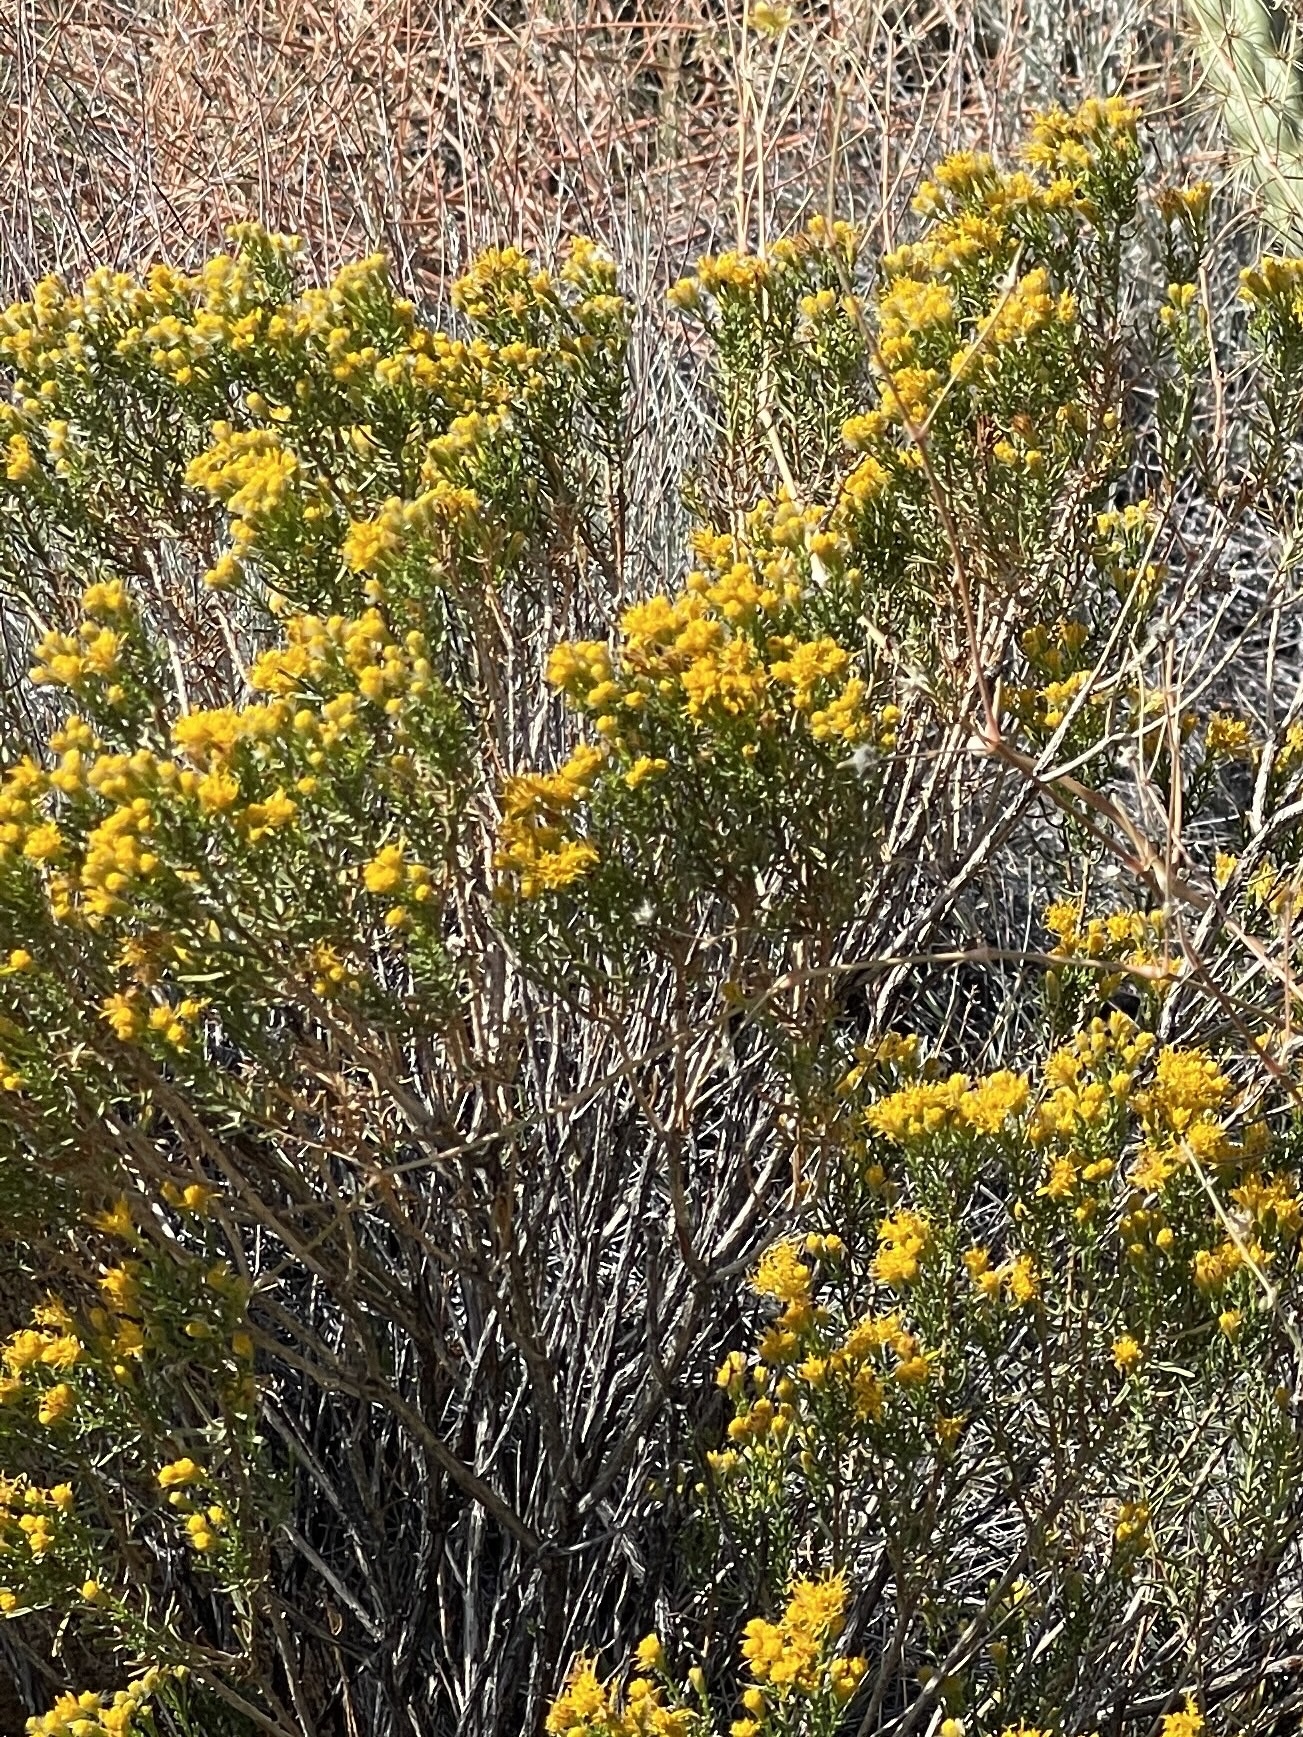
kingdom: Plantae
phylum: Tracheophyta
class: Magnoliopsida
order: Asterales
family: Asteraceae
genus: Ericameria
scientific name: Ericameria laricifolia
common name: Turpentine-bush
